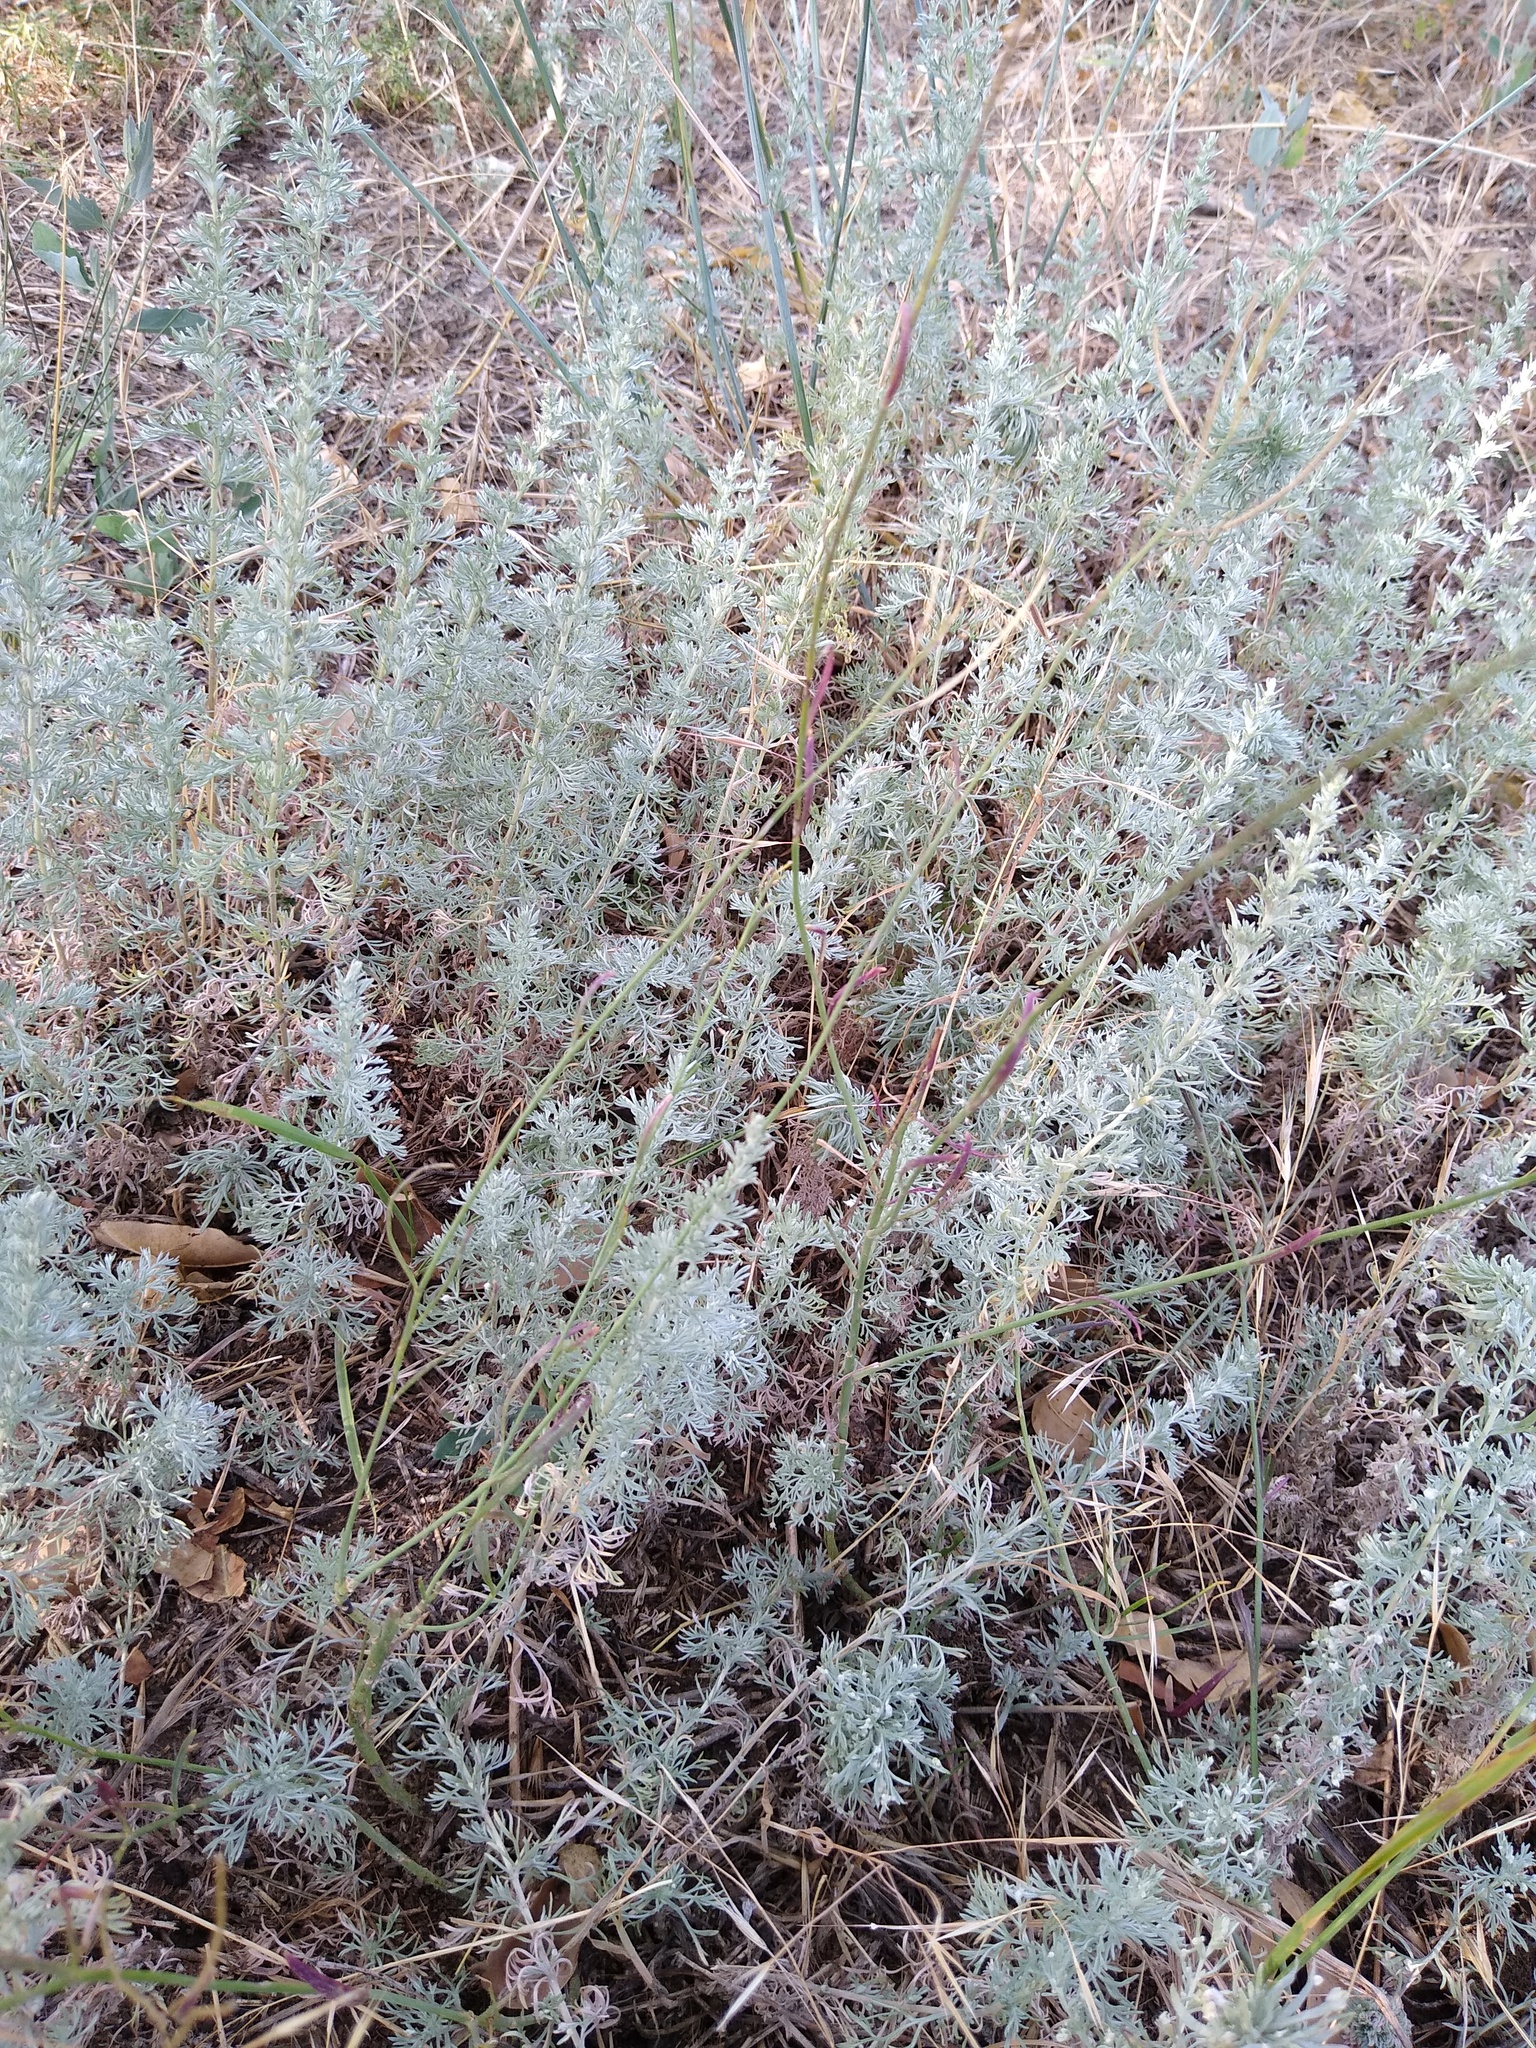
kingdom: Plantae
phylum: Tracheophyta
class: Magnoliopsida
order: Asterales
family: Asteraceae
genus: Artemisia
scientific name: Artemisia austriaca
